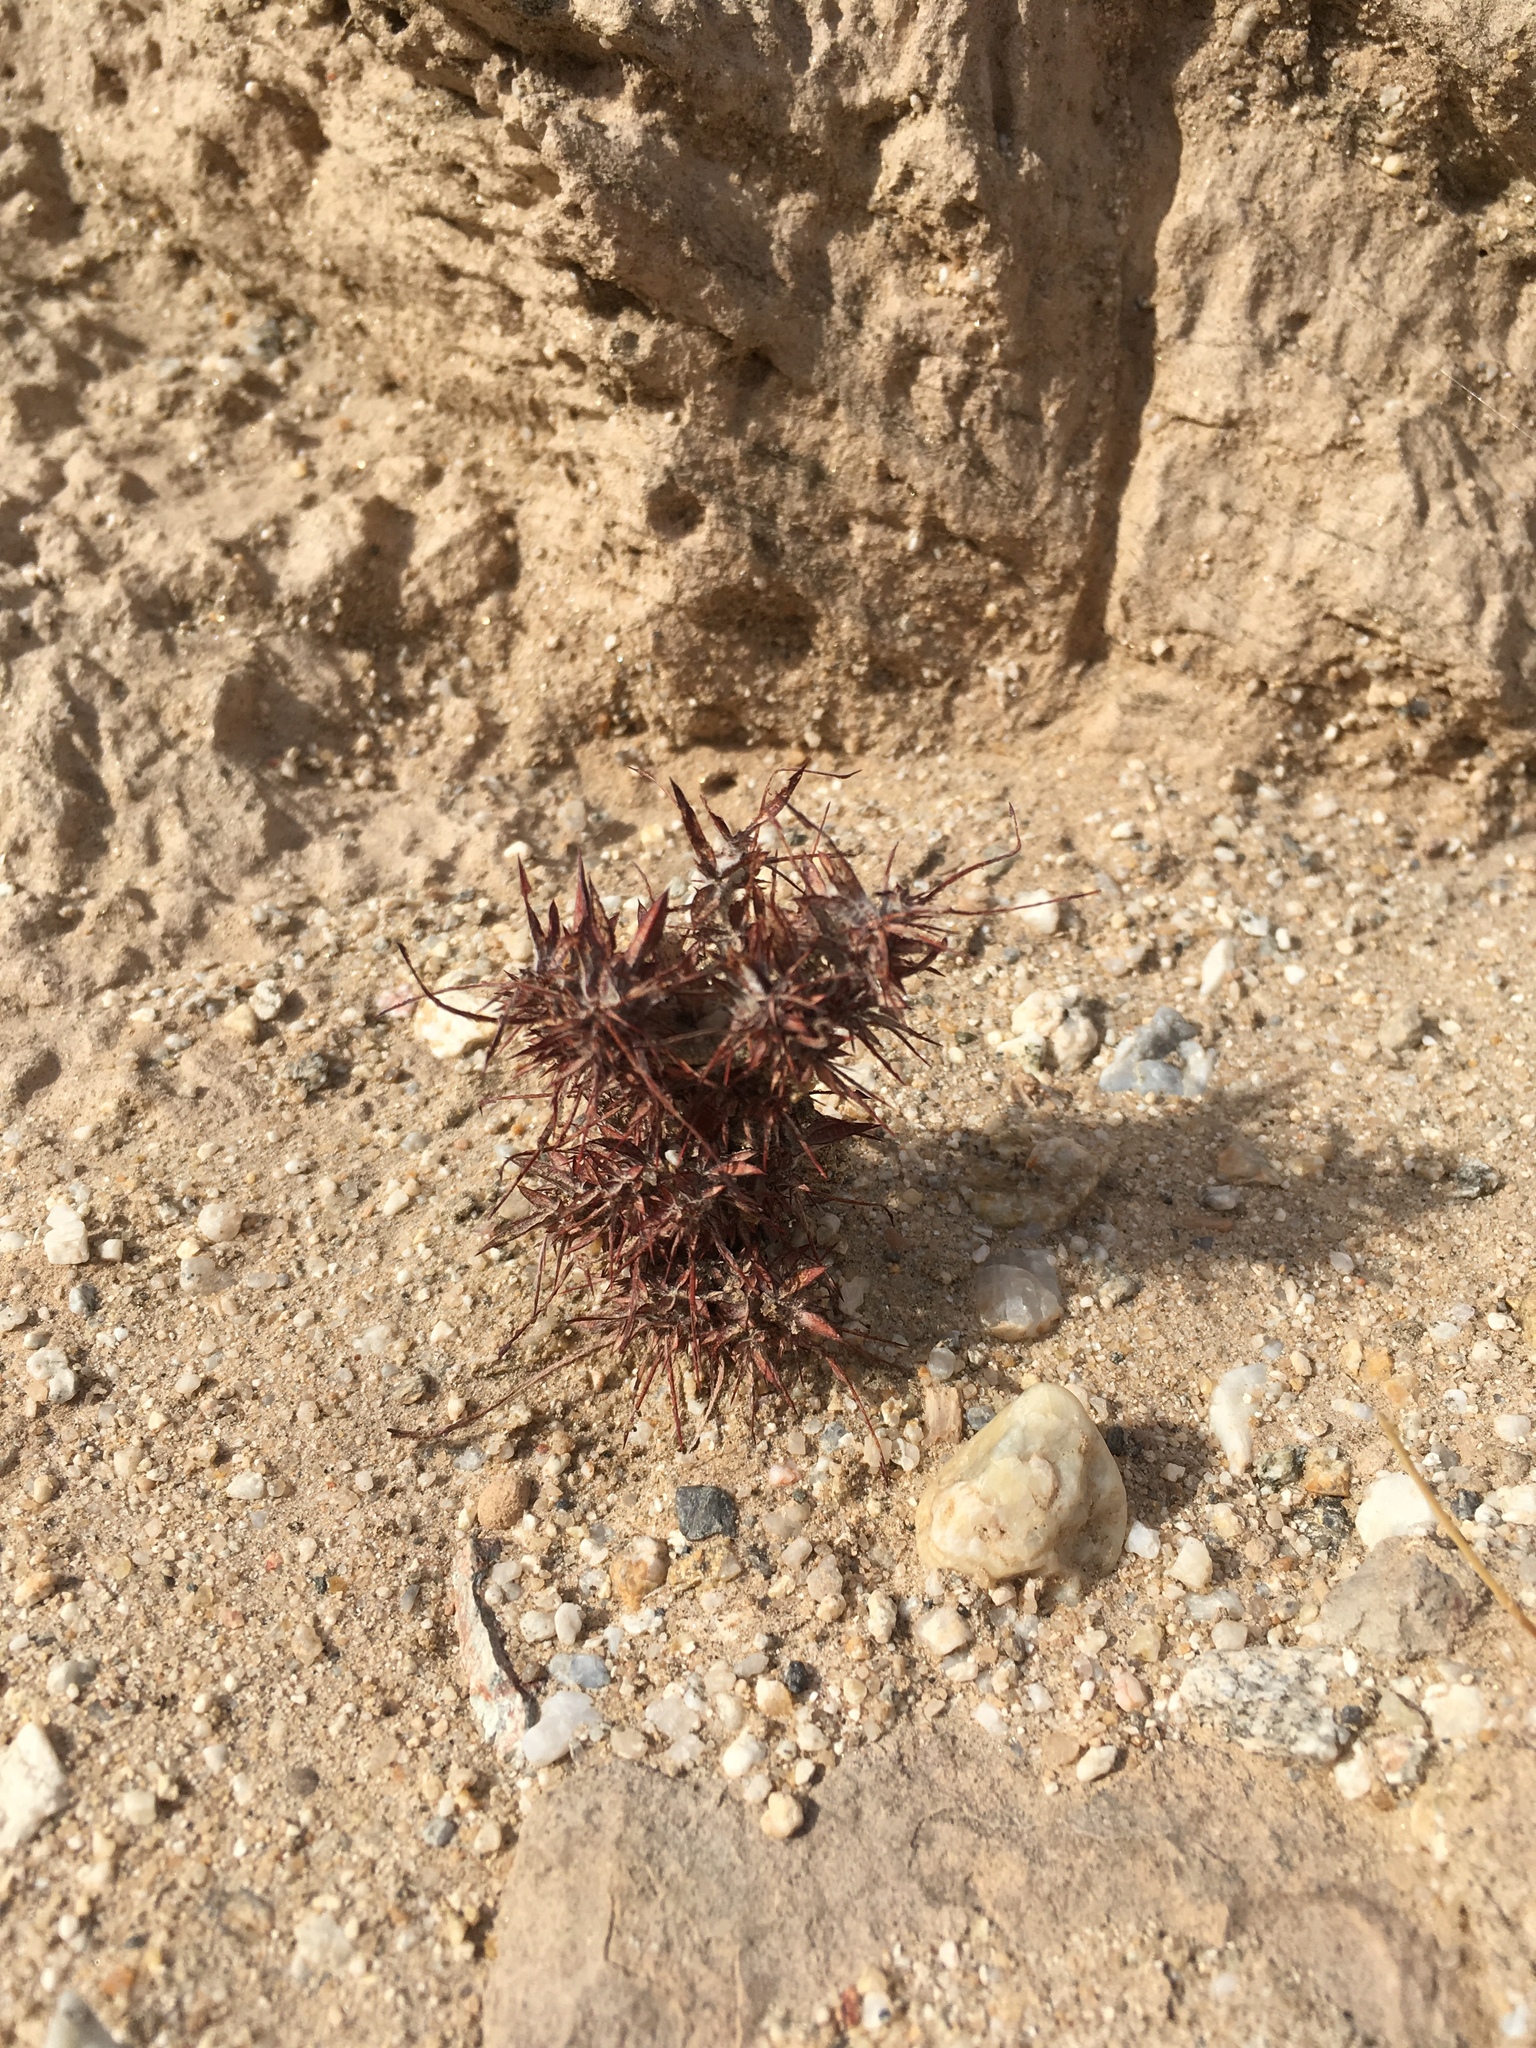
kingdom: Plantae
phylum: Tracheophyta
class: Magnoliopsida
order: Caryophyllales
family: Polygonaceae
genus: Chorizanthe
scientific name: Chorizanthe rigida
